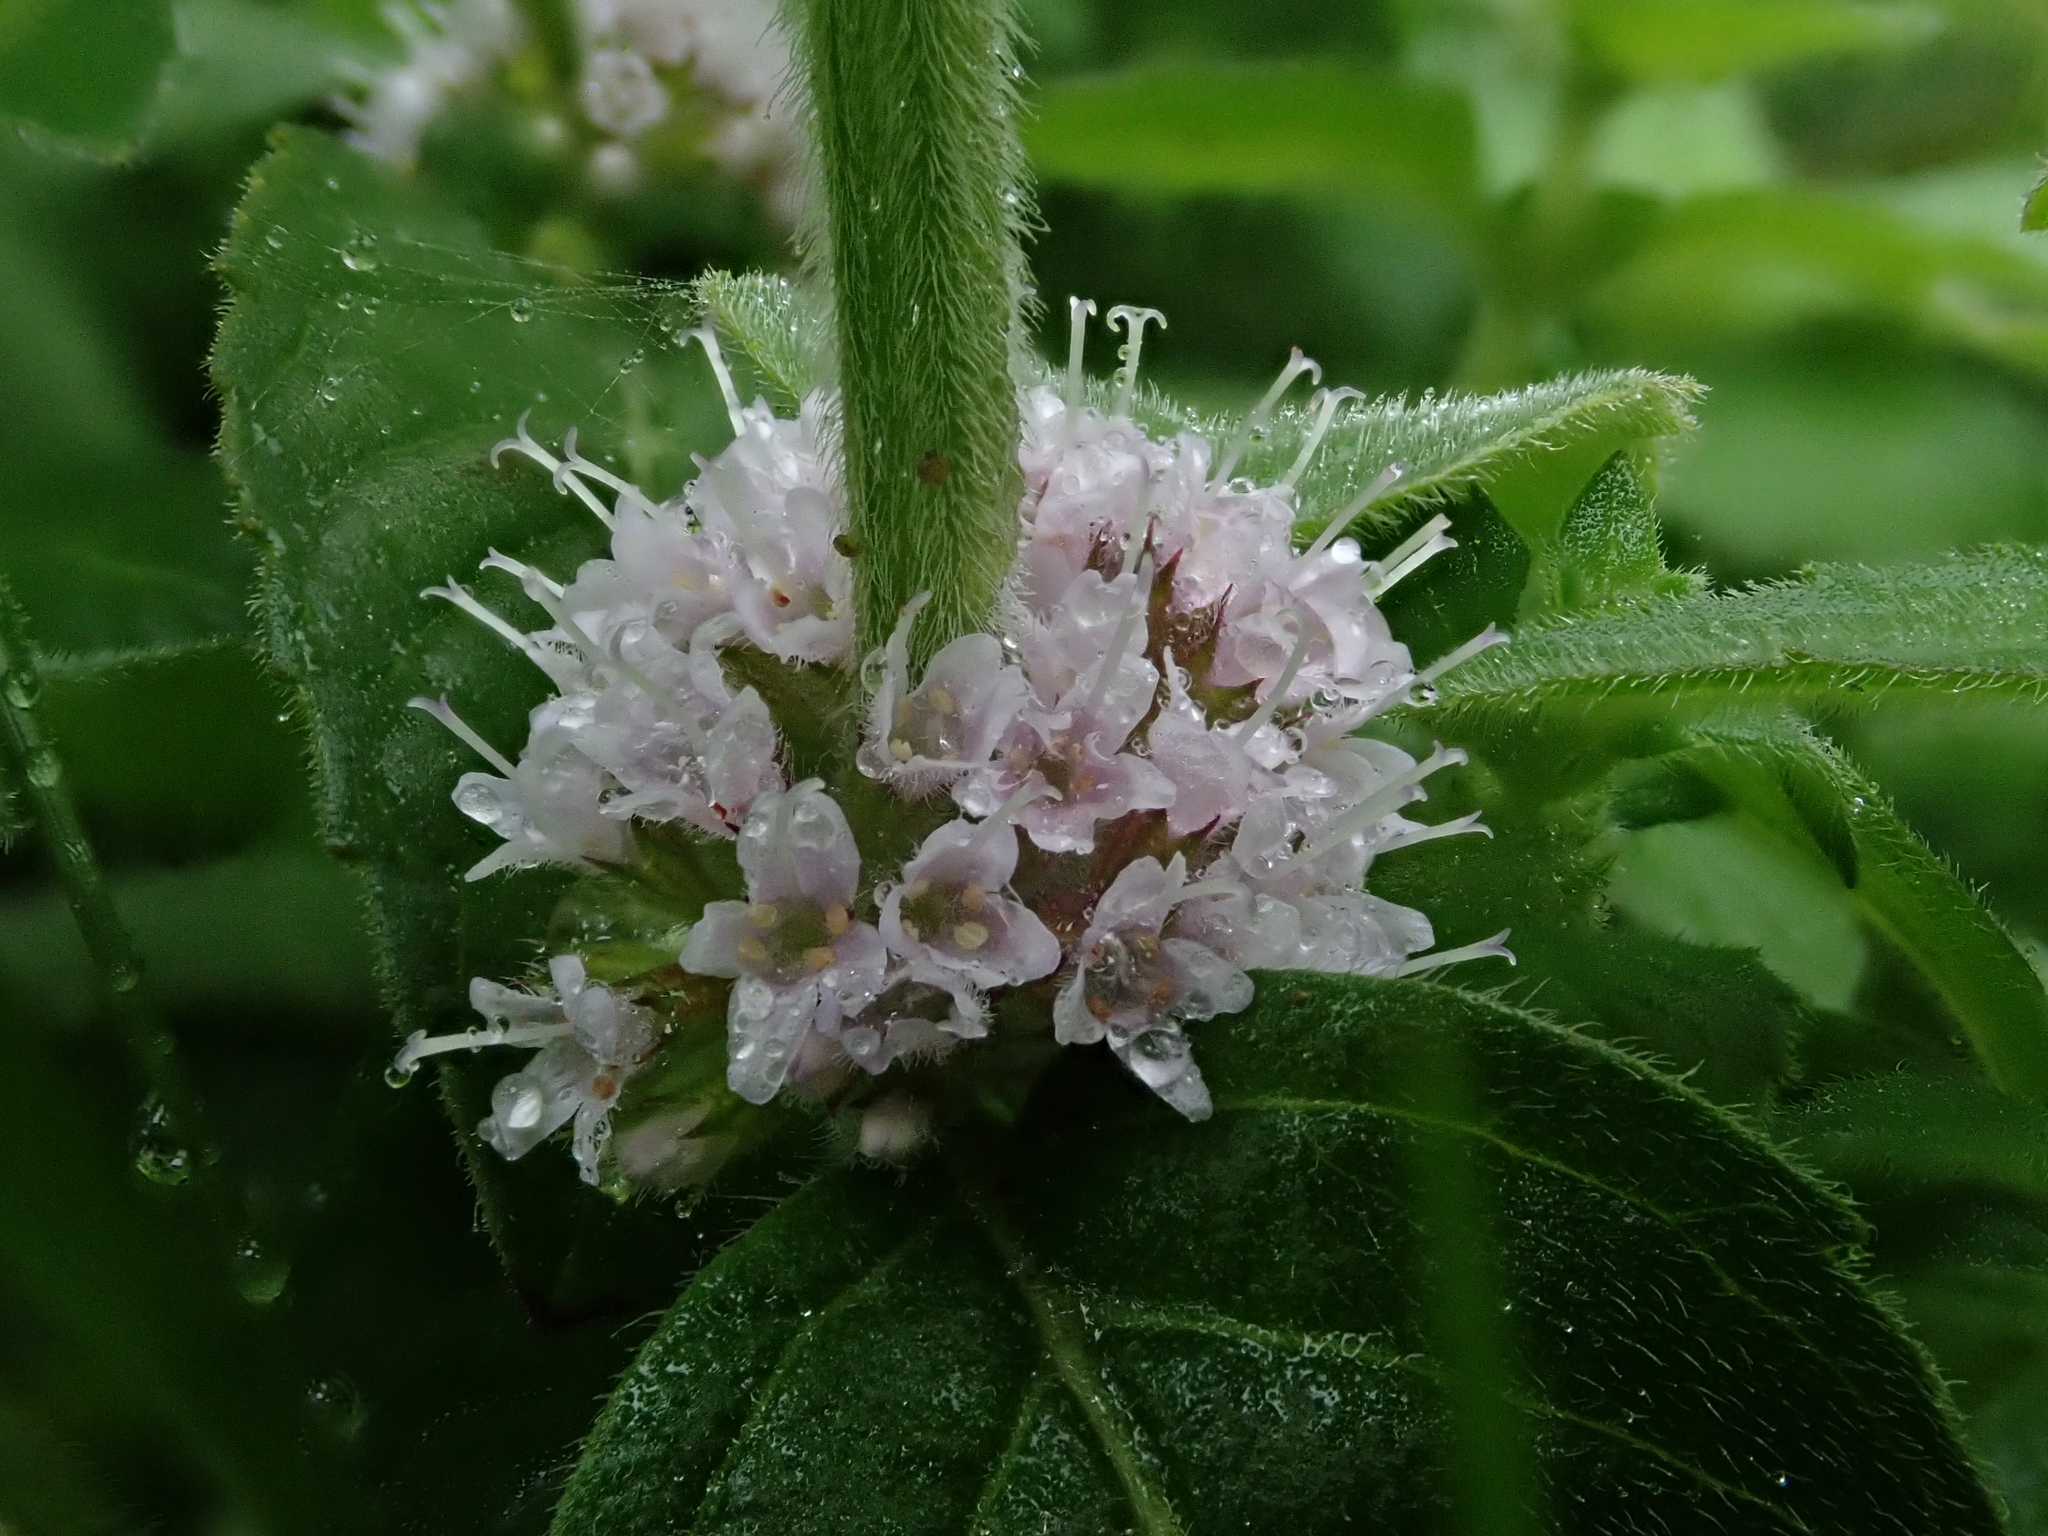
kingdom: Plantae
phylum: Tracheophyta
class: Magnoliopsida
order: Lamiales
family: Lamiaceae
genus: Mentha
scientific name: Mentha arvensis
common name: Corn mint
